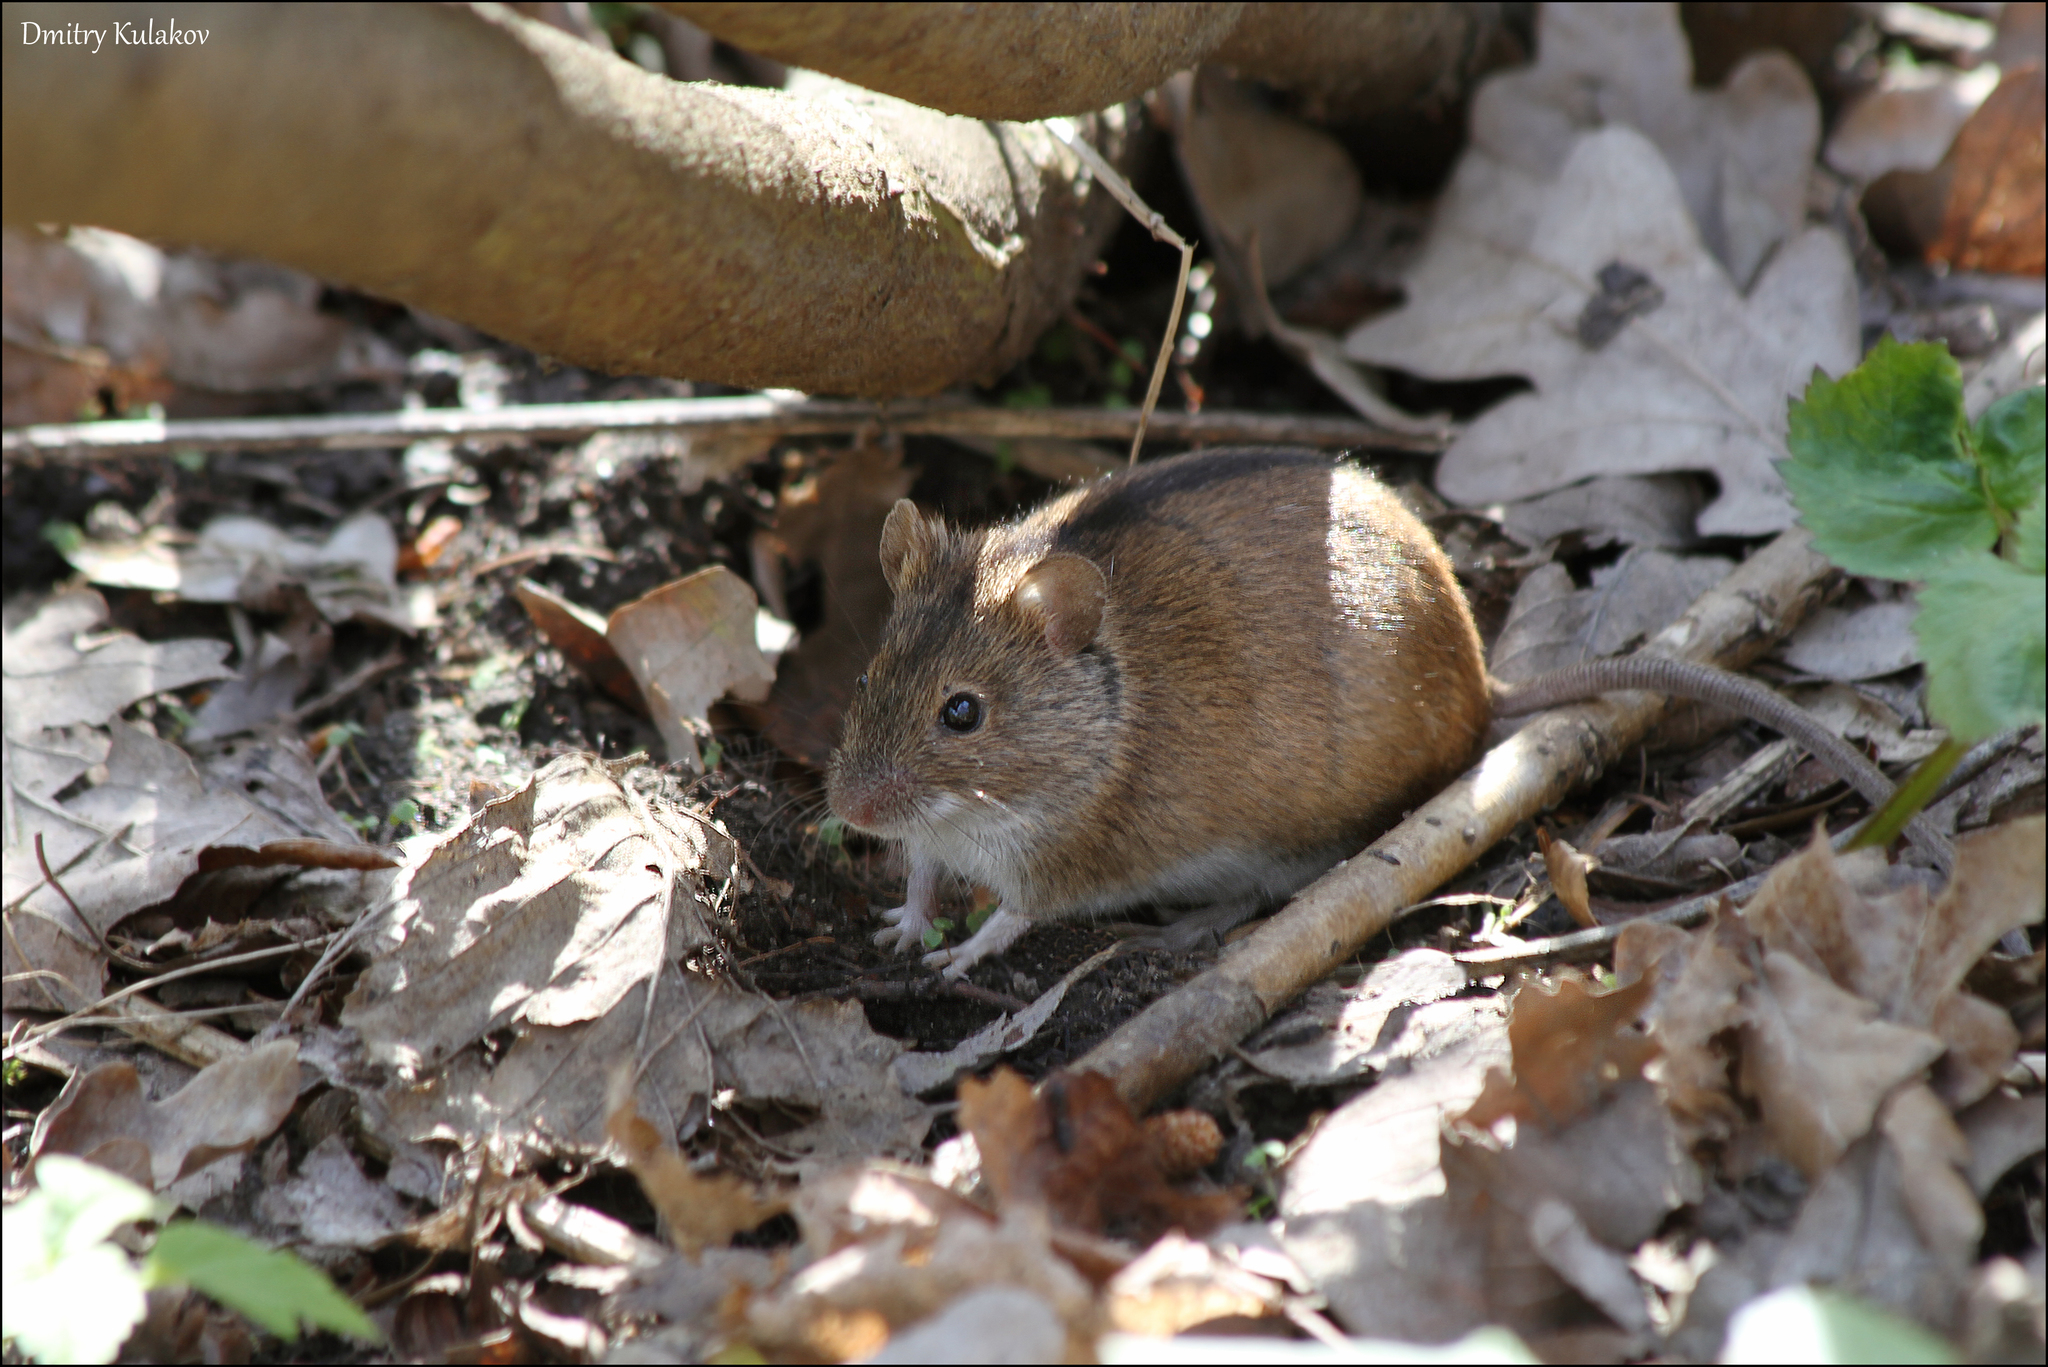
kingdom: Animalia
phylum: Chordata
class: Mammalia
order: Rodentia
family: Muridae
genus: Apodemus
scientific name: Apodemus agrarius
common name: Striped field mouse
